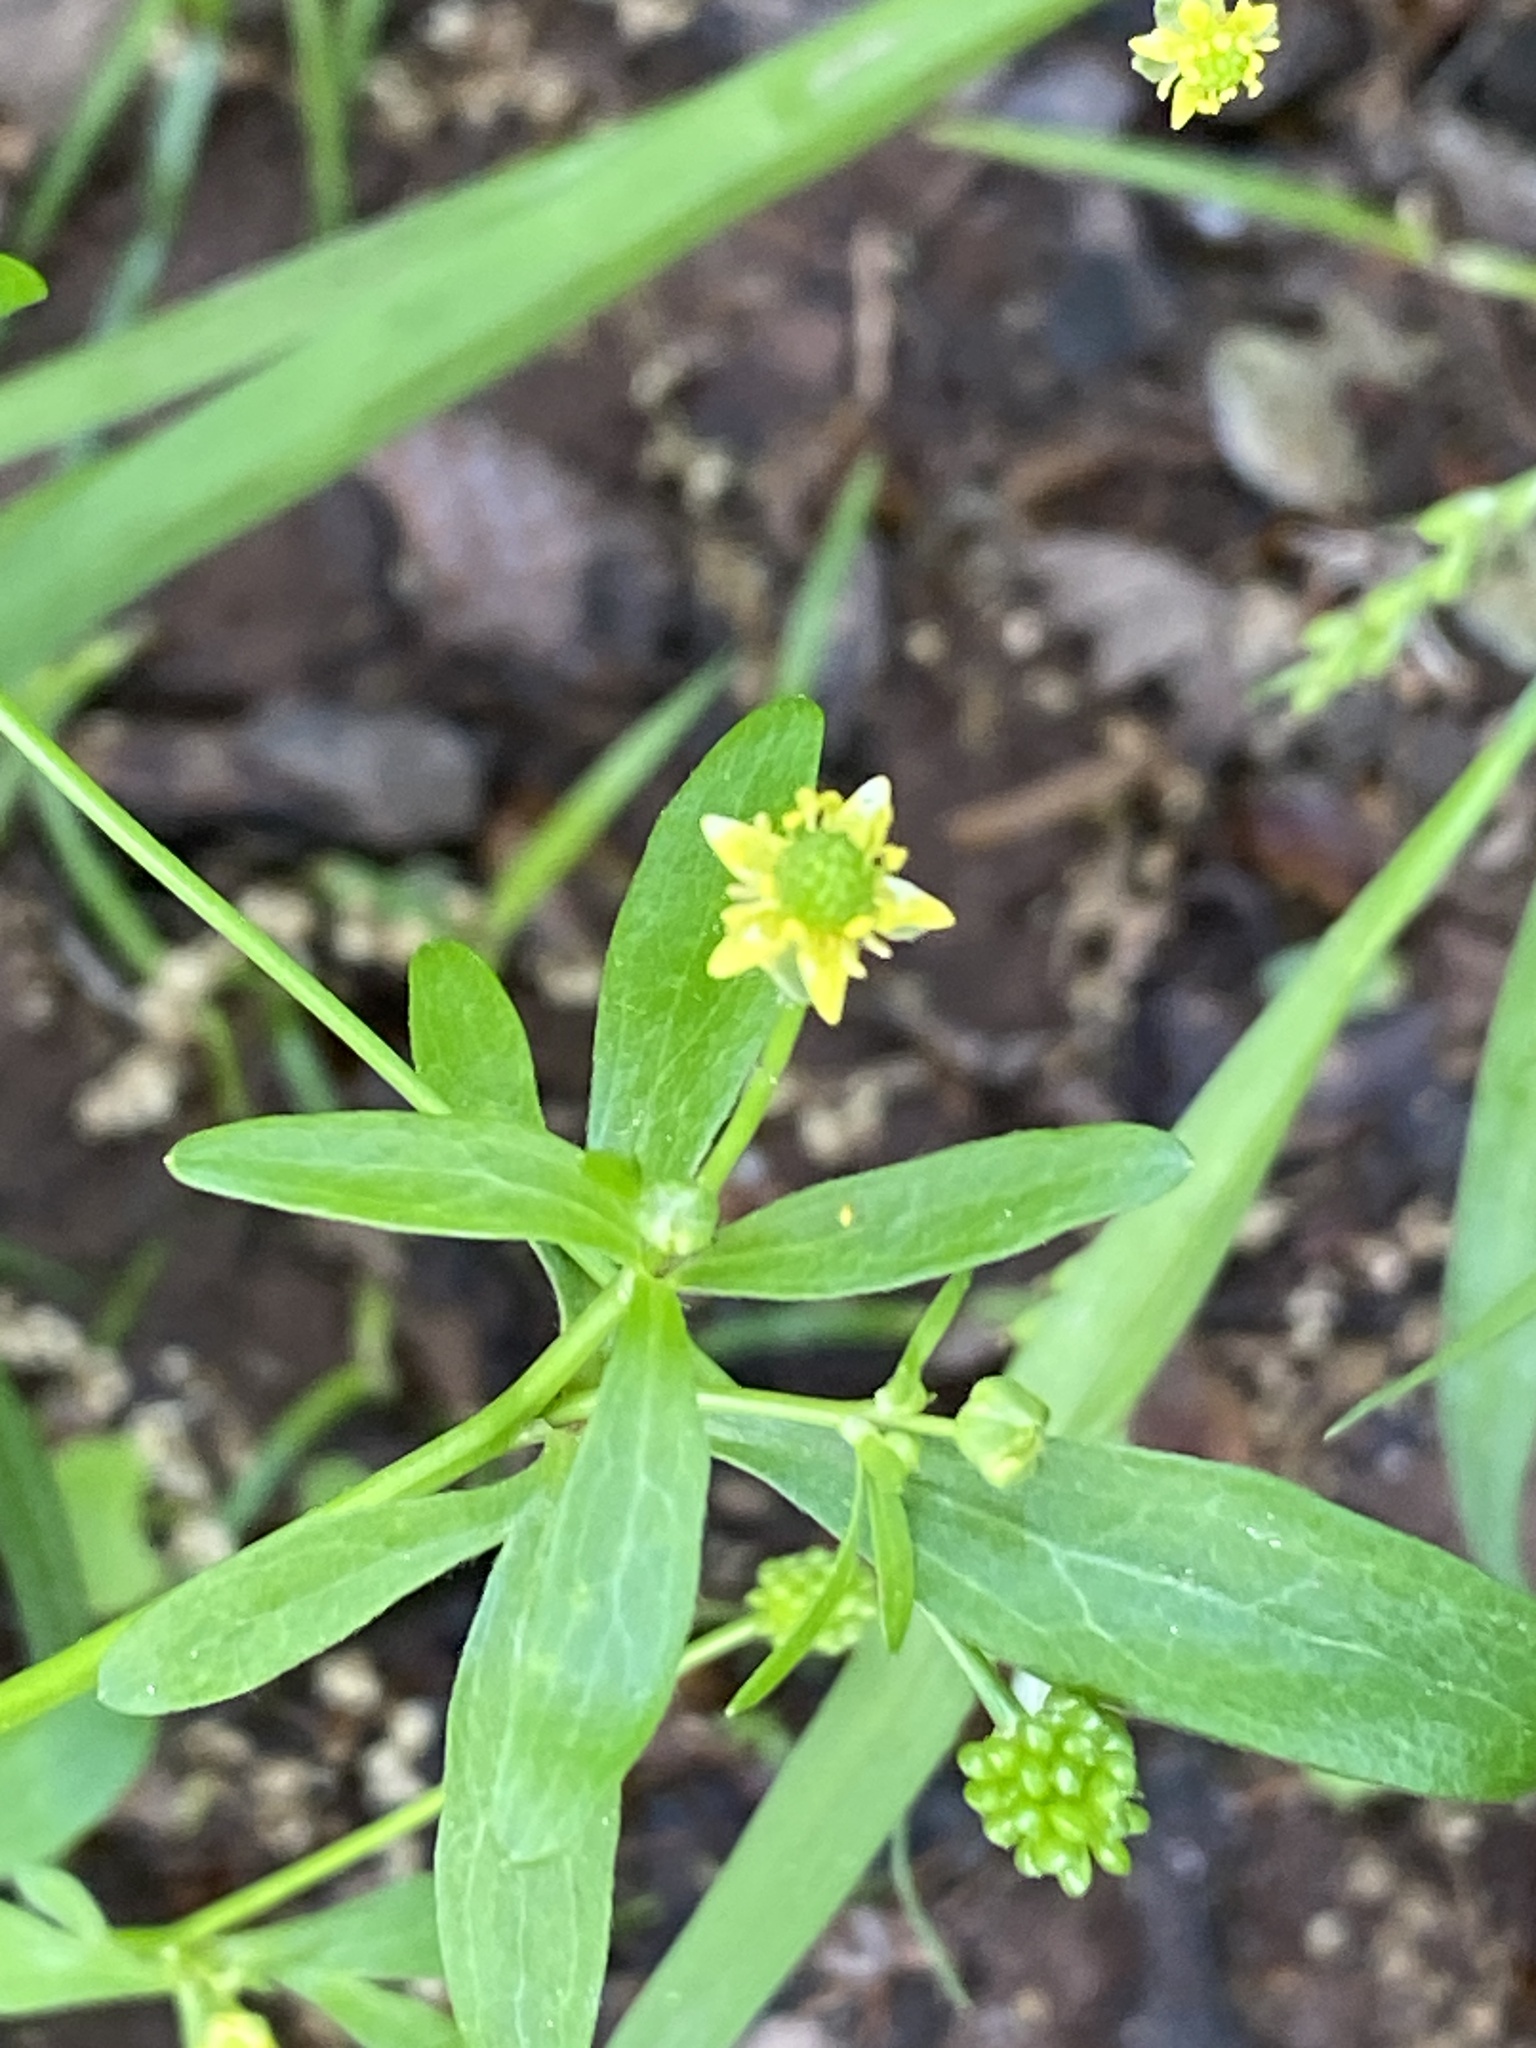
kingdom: Plantae
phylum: Tracheophyta
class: Magnoliopsida
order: Ranunculales
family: Ranunculaceae
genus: Ranunculus
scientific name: Ranunculus abortivus
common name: Early wood buttercup
